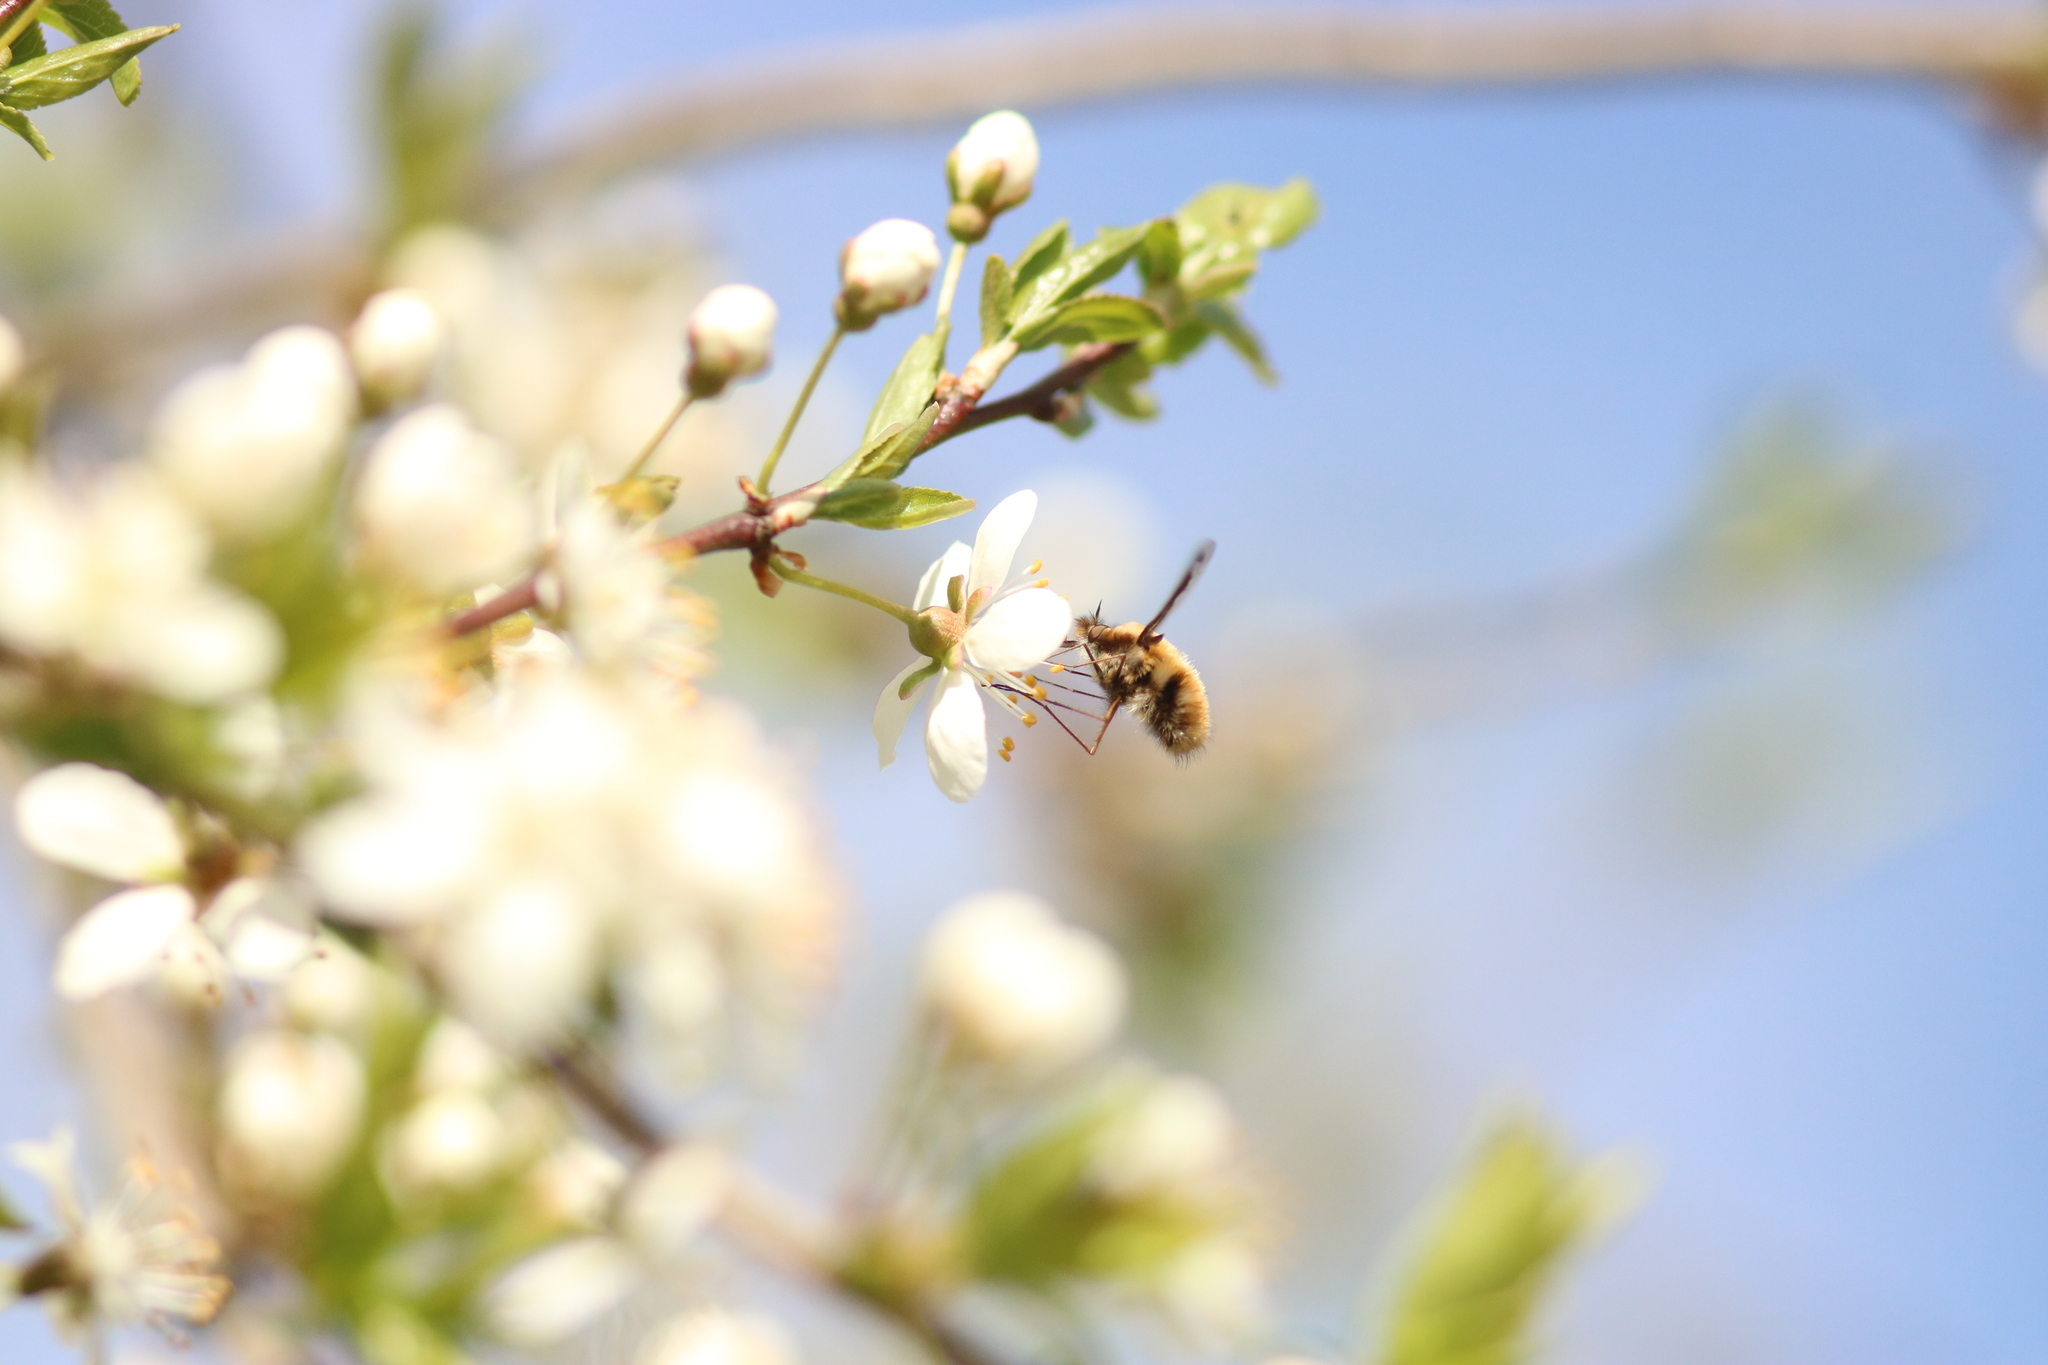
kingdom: Animalia
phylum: Arthropoda
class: Insecta
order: Diptera
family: Bombyliidae
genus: Bombylius
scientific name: Bombylius major
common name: Bee fly
